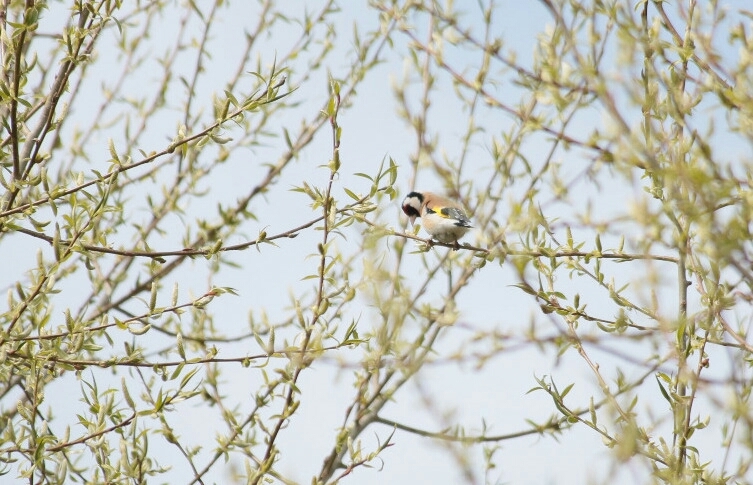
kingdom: Animalia
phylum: Chordata
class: Aves
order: Passeriformes
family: Fringillidae
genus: Carduelis
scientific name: Carduelis carduelis
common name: European goldfinch
